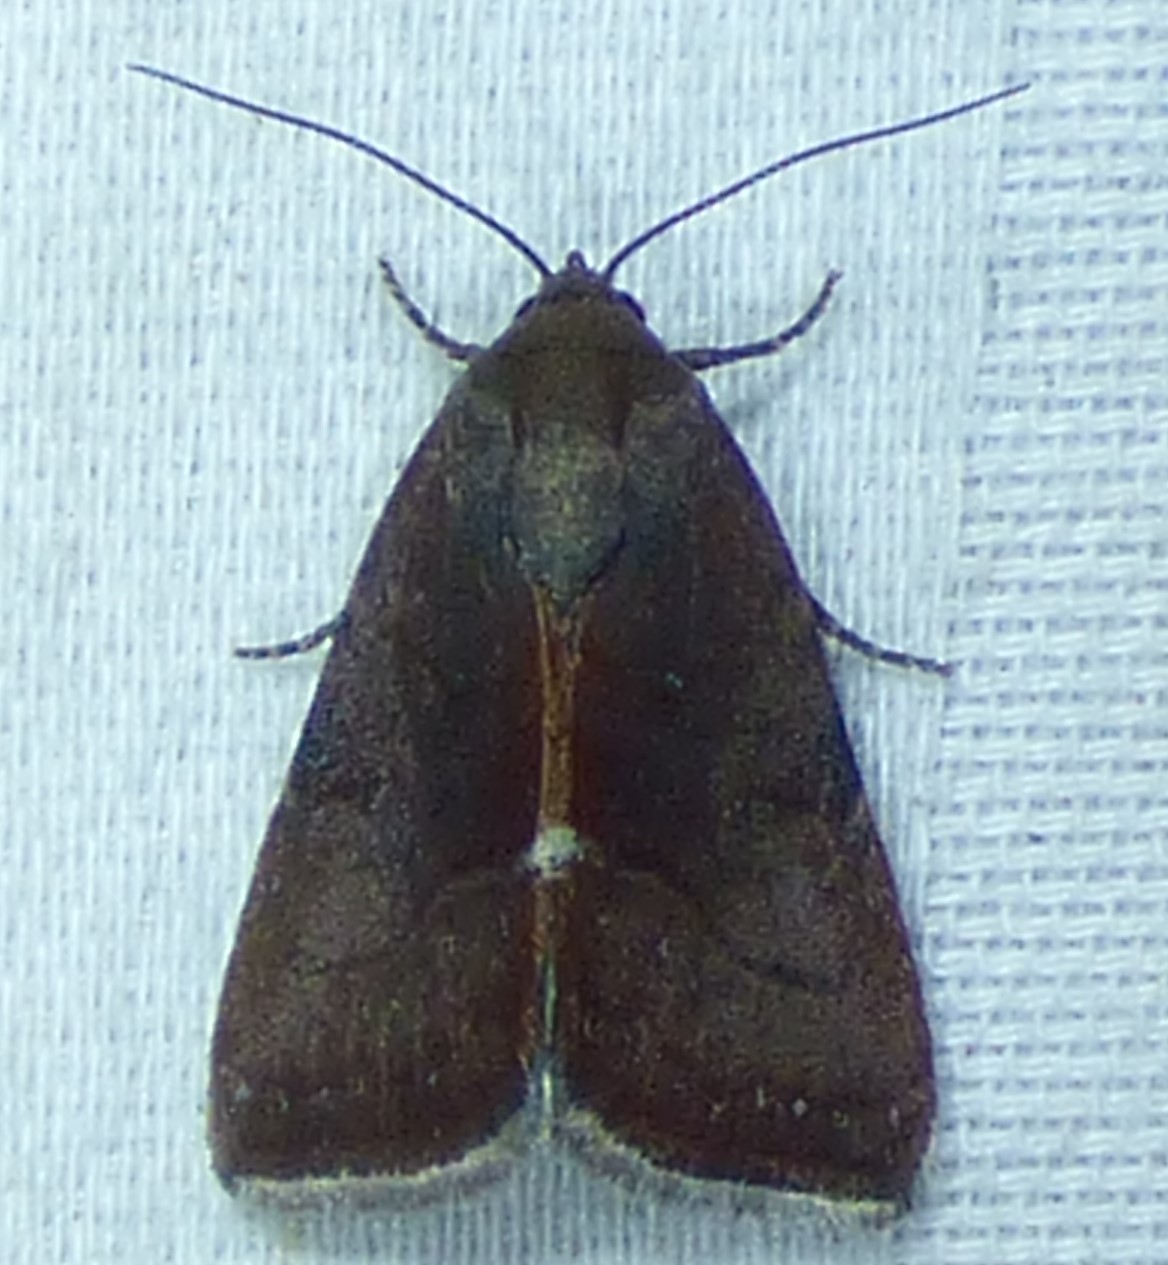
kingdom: Animalia
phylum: Arthropoda
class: Insecta
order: Lepidoptera
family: Noctuidae
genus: Galgula
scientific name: Galgula partita
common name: Wedgeling
